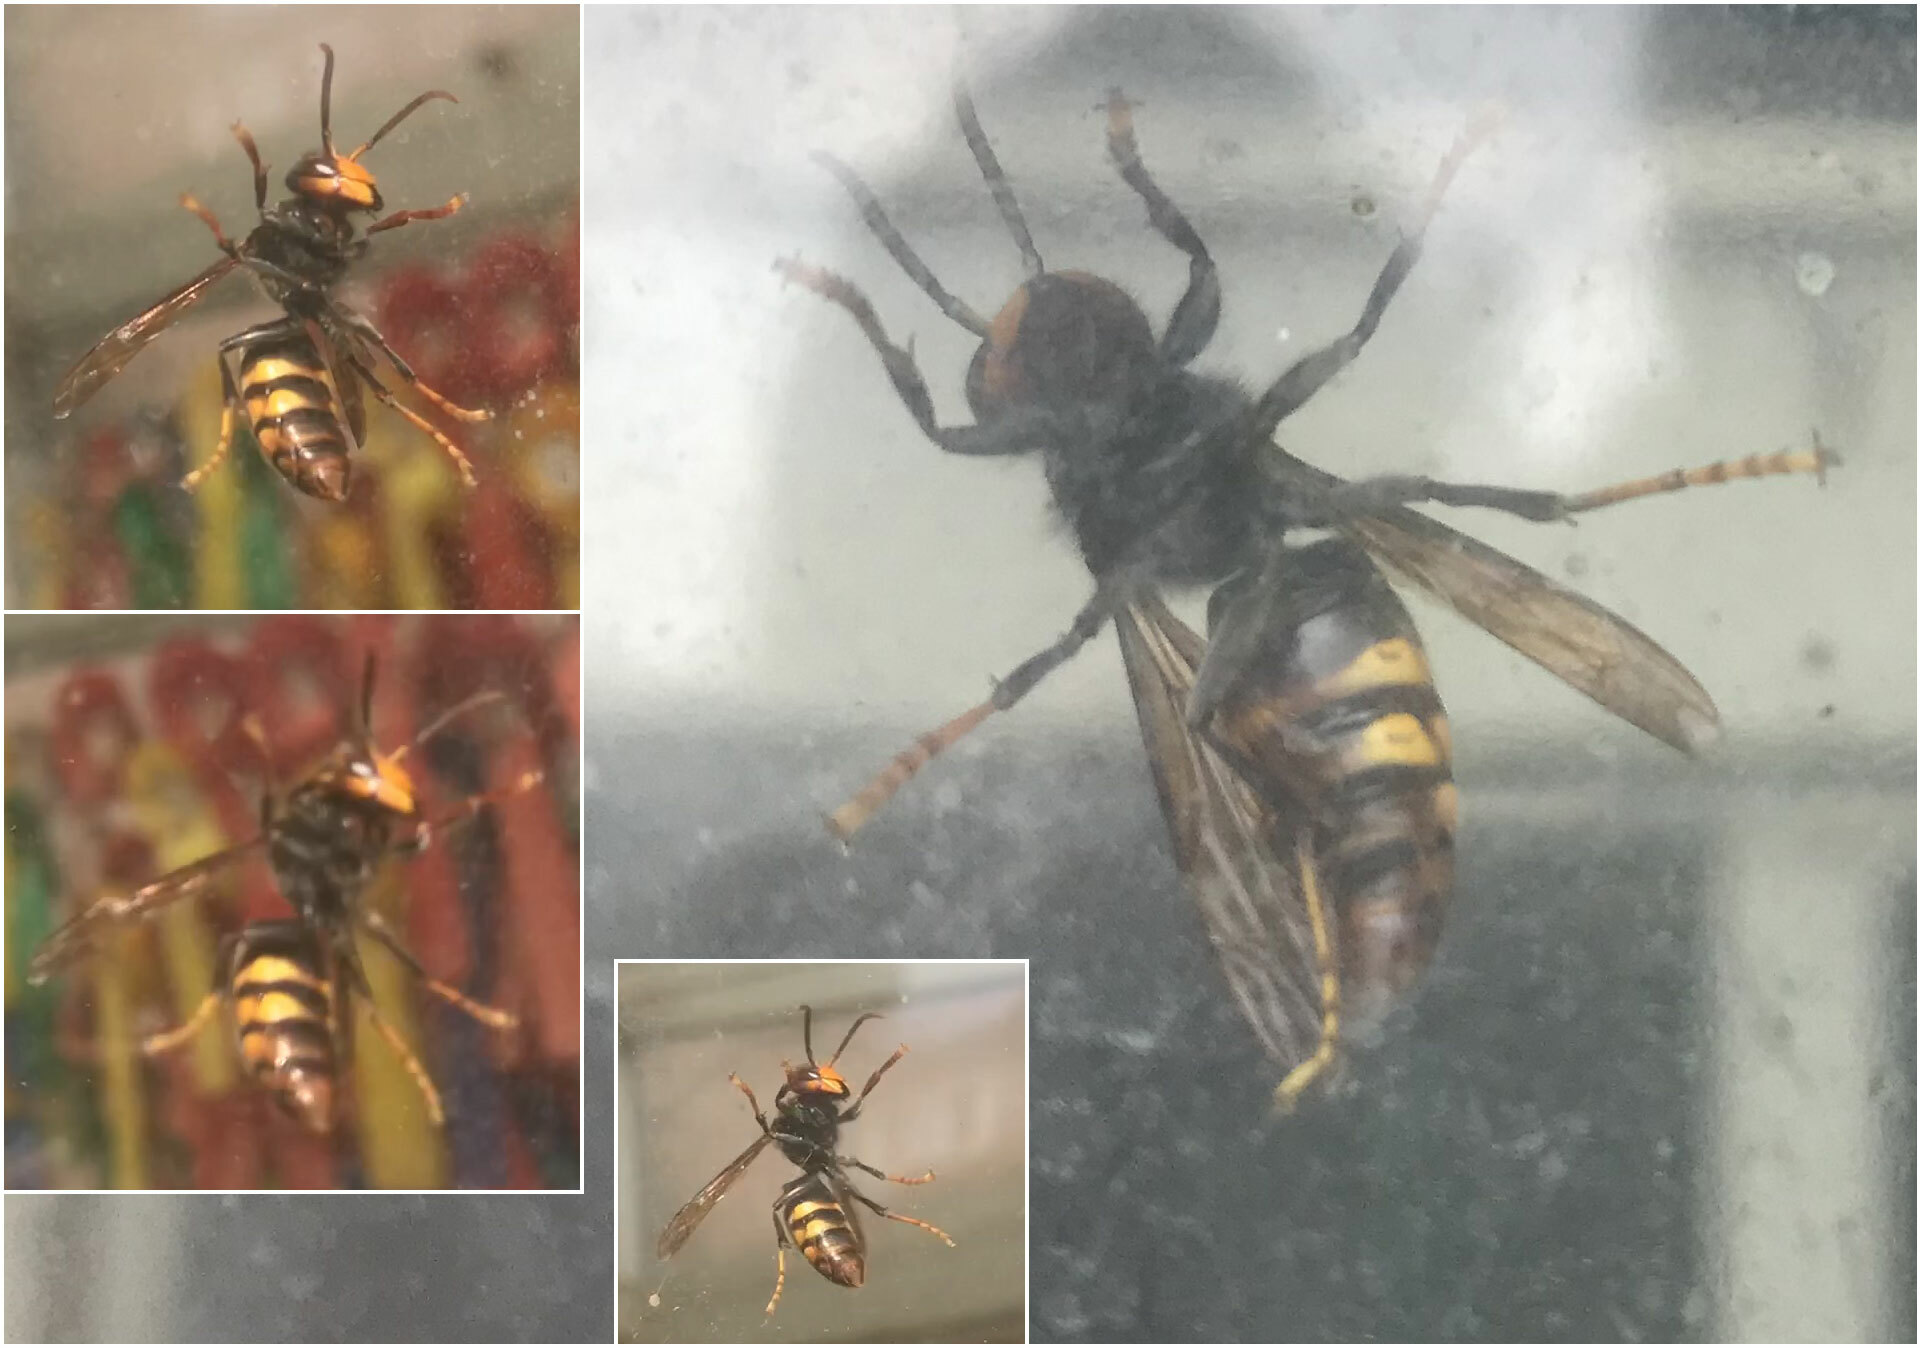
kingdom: Animalia
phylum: Arthropoda
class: Insecta
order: Hymenoptera
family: Vespidae
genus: Vespa
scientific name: Vespa velutina
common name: Asian hornet
